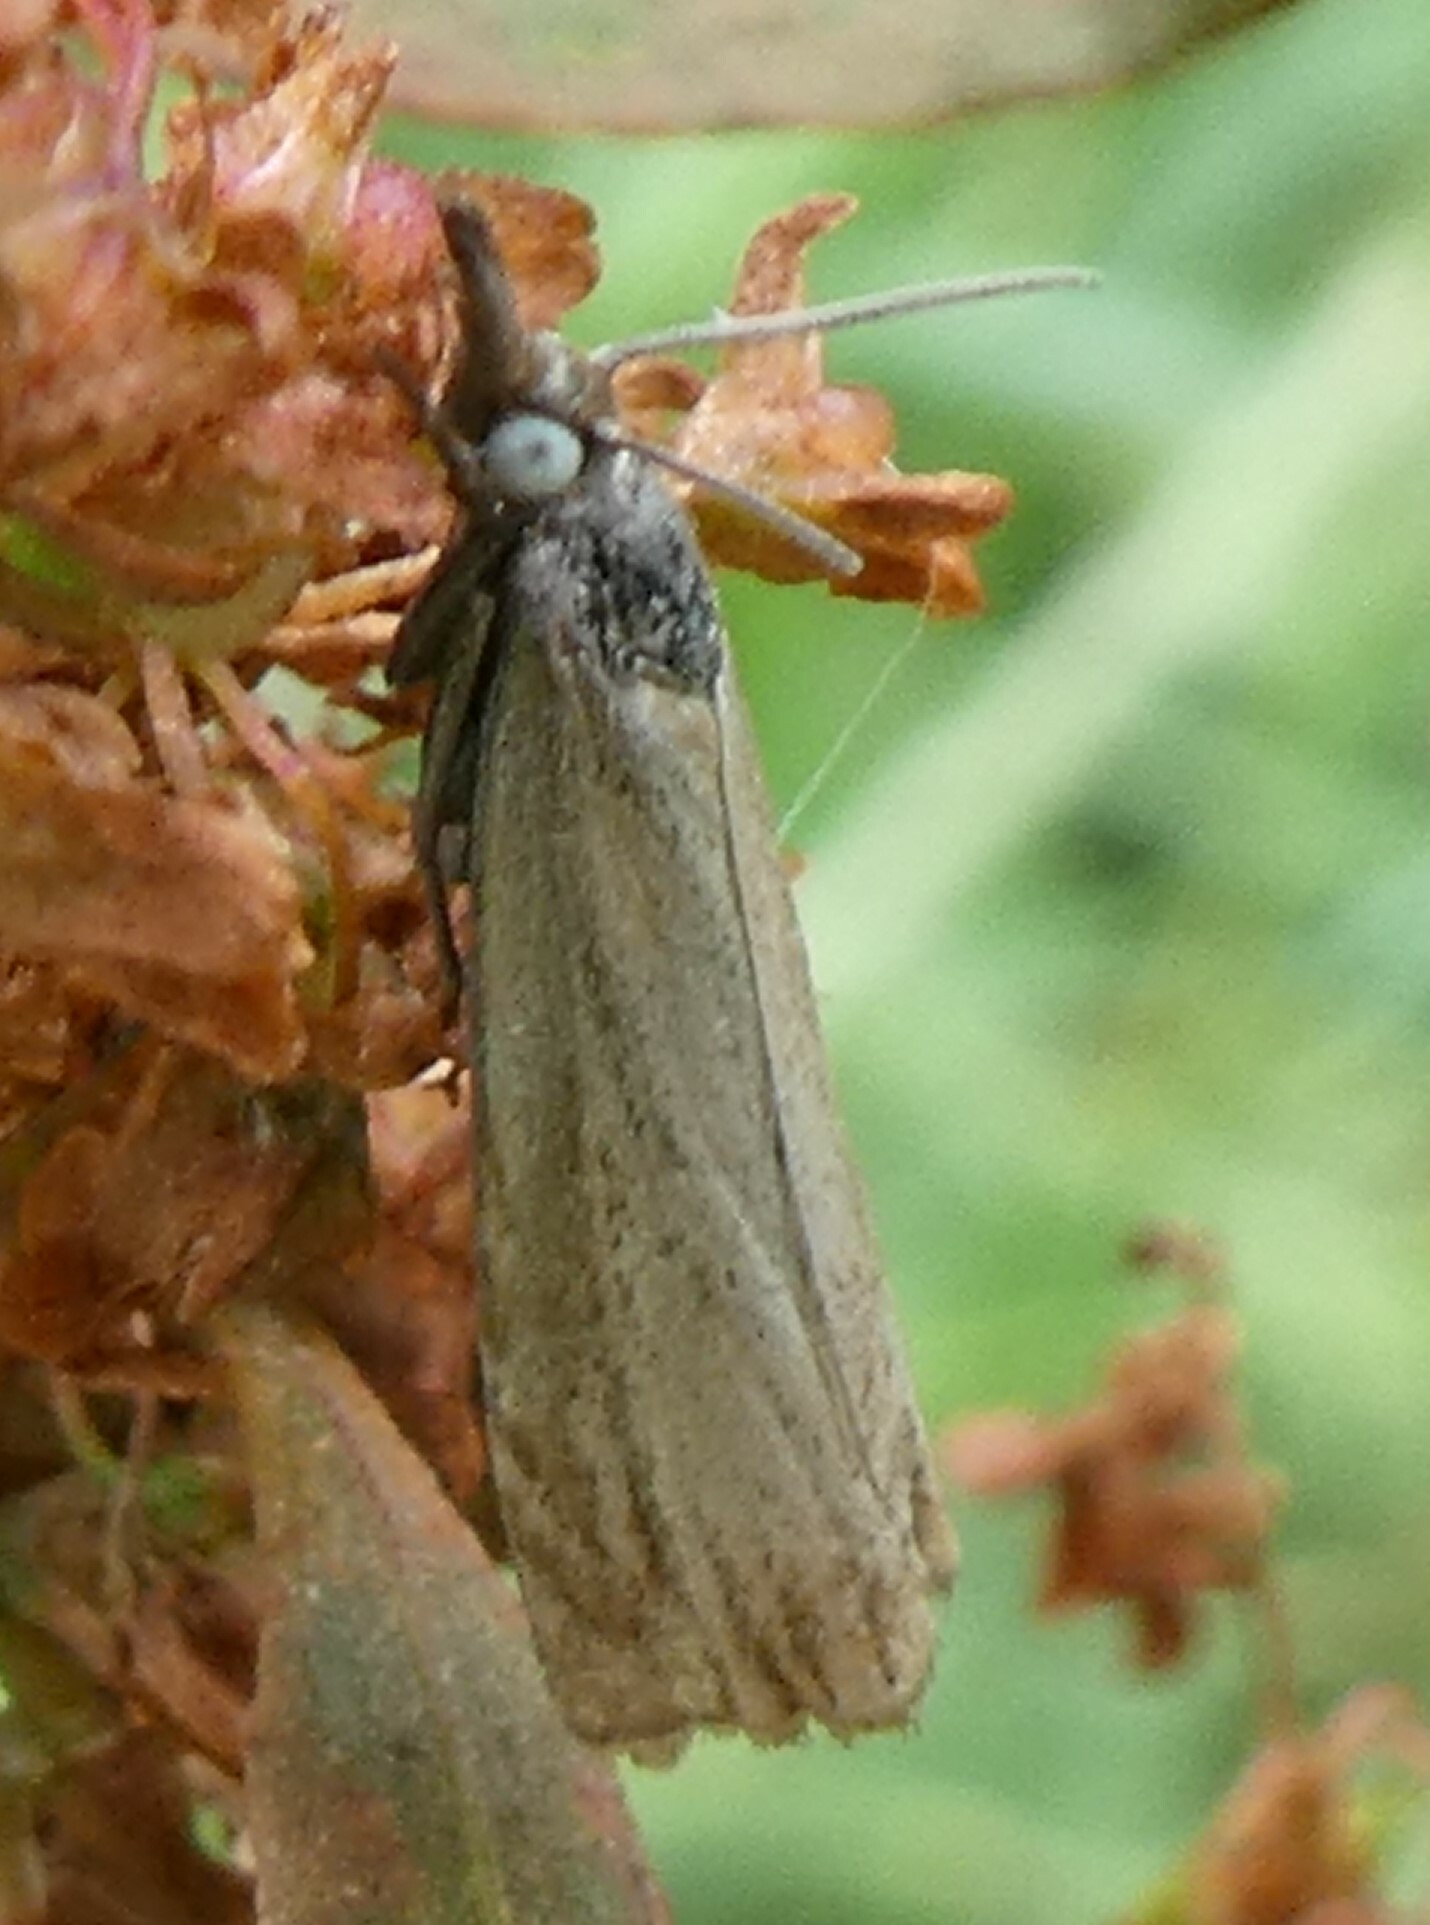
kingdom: Animalia
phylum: Arthropoda
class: Insecta
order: Lepidoptera
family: Crambidae
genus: Chrysoteuchia
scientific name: Chrysoteuchia culmella
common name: Garden grass-veneer
